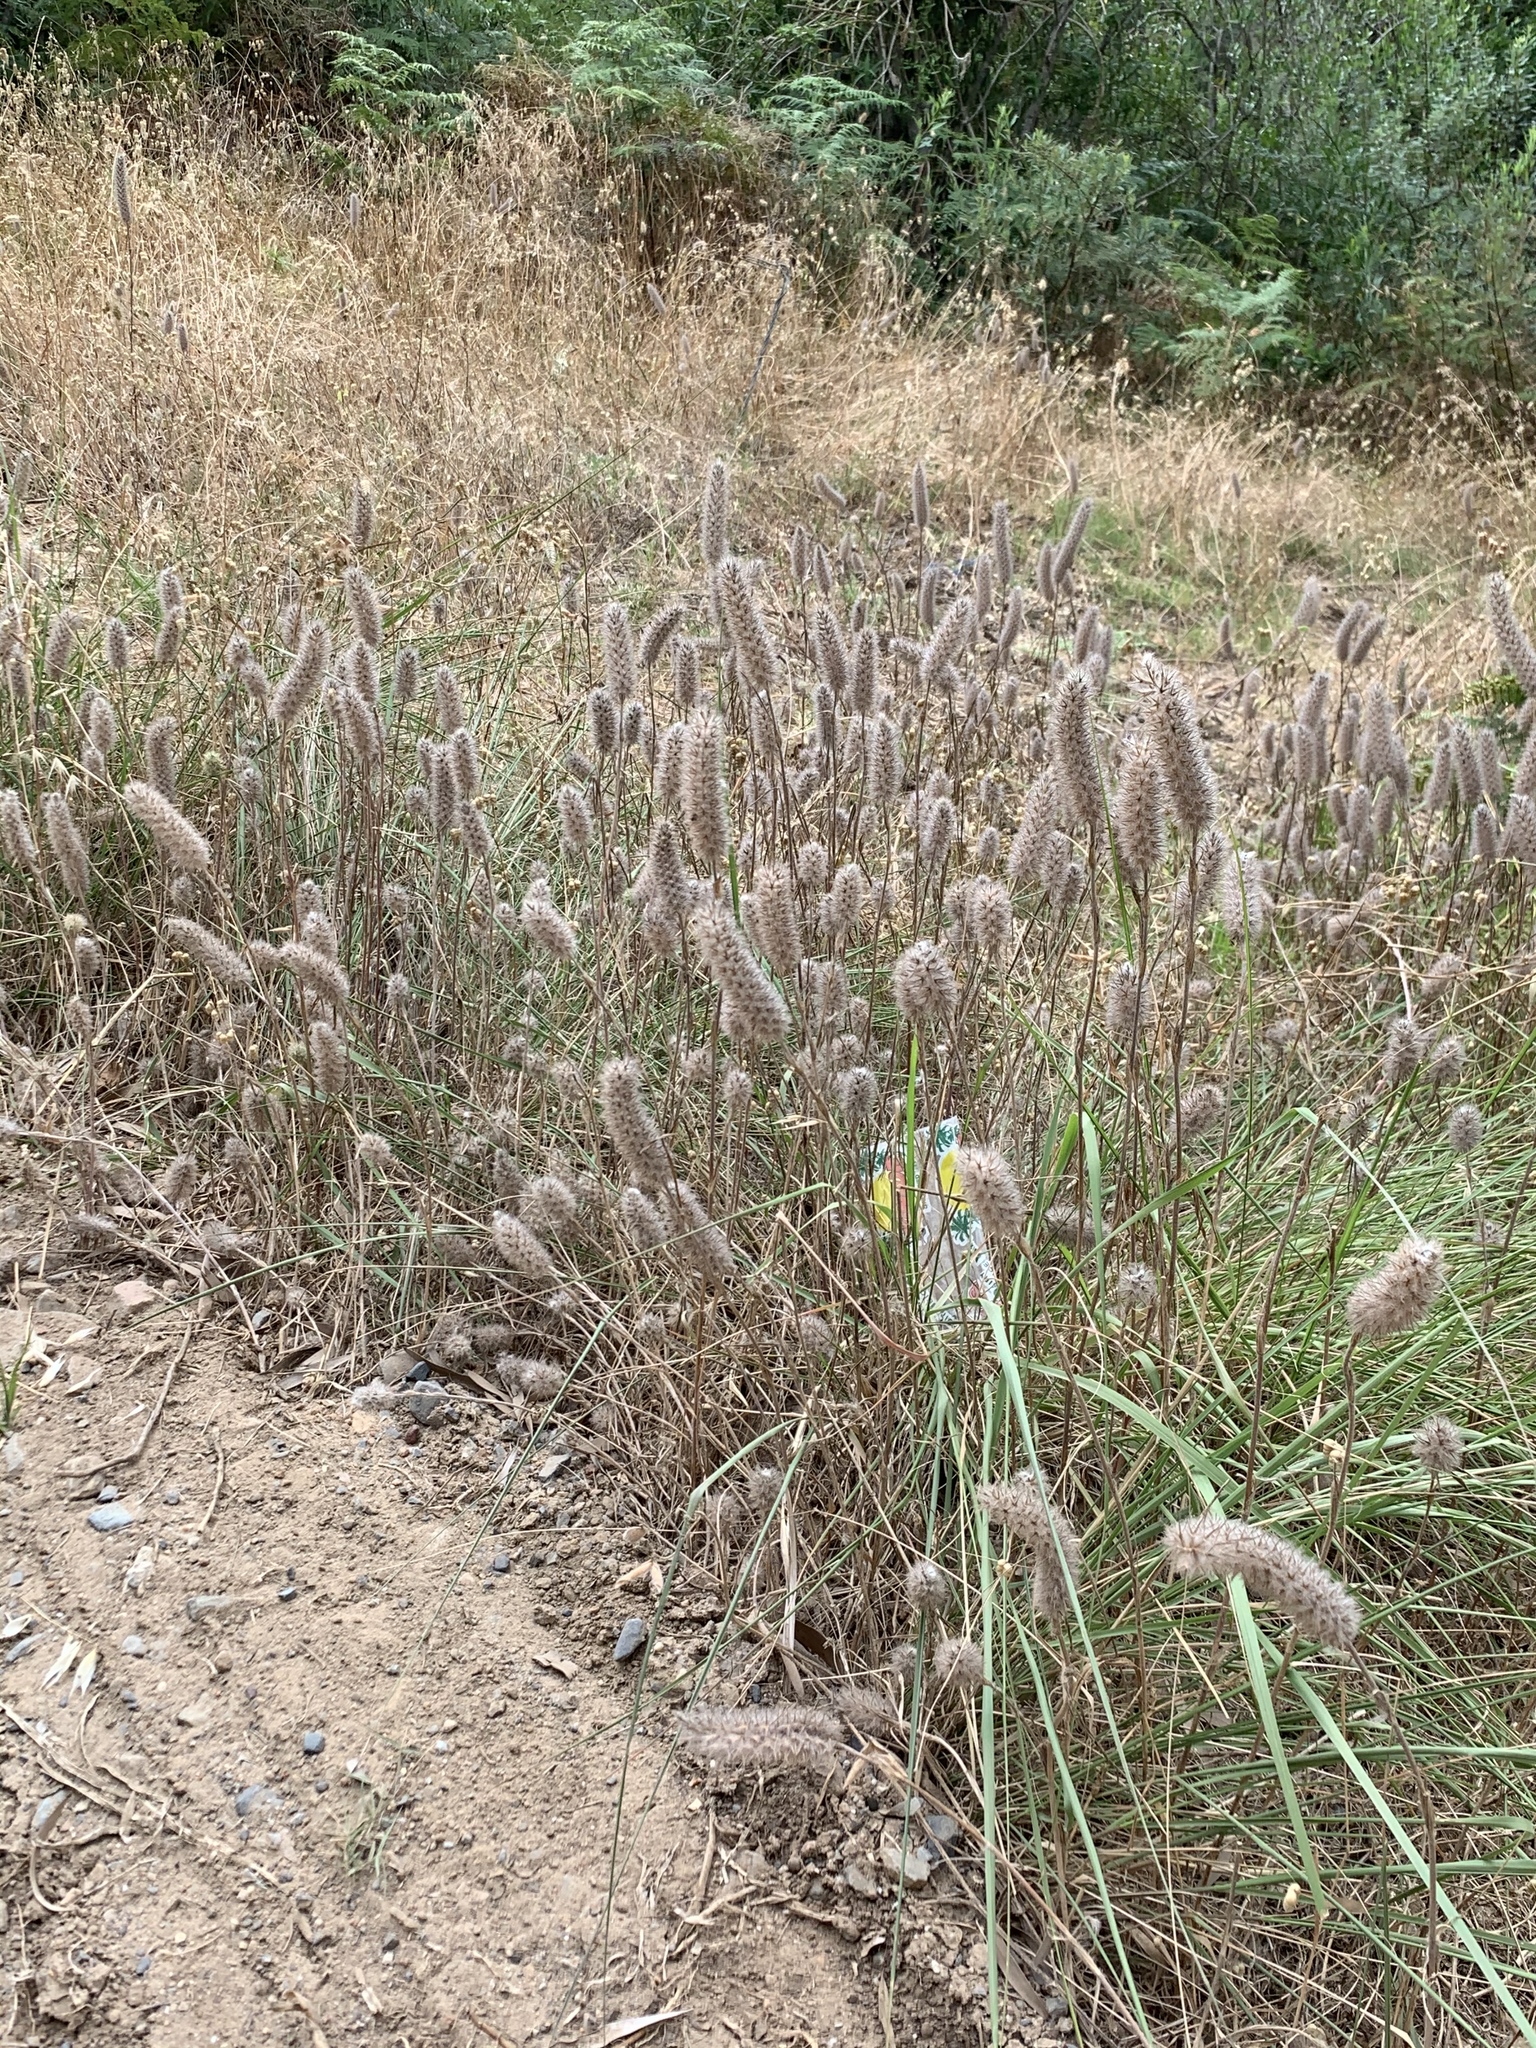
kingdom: Plantae
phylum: Tracheophyta
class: Magnoliopsida
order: Fabales
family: Fabaceae
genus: Trifolium
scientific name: Trifolium angustifolium
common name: Narrow clover
